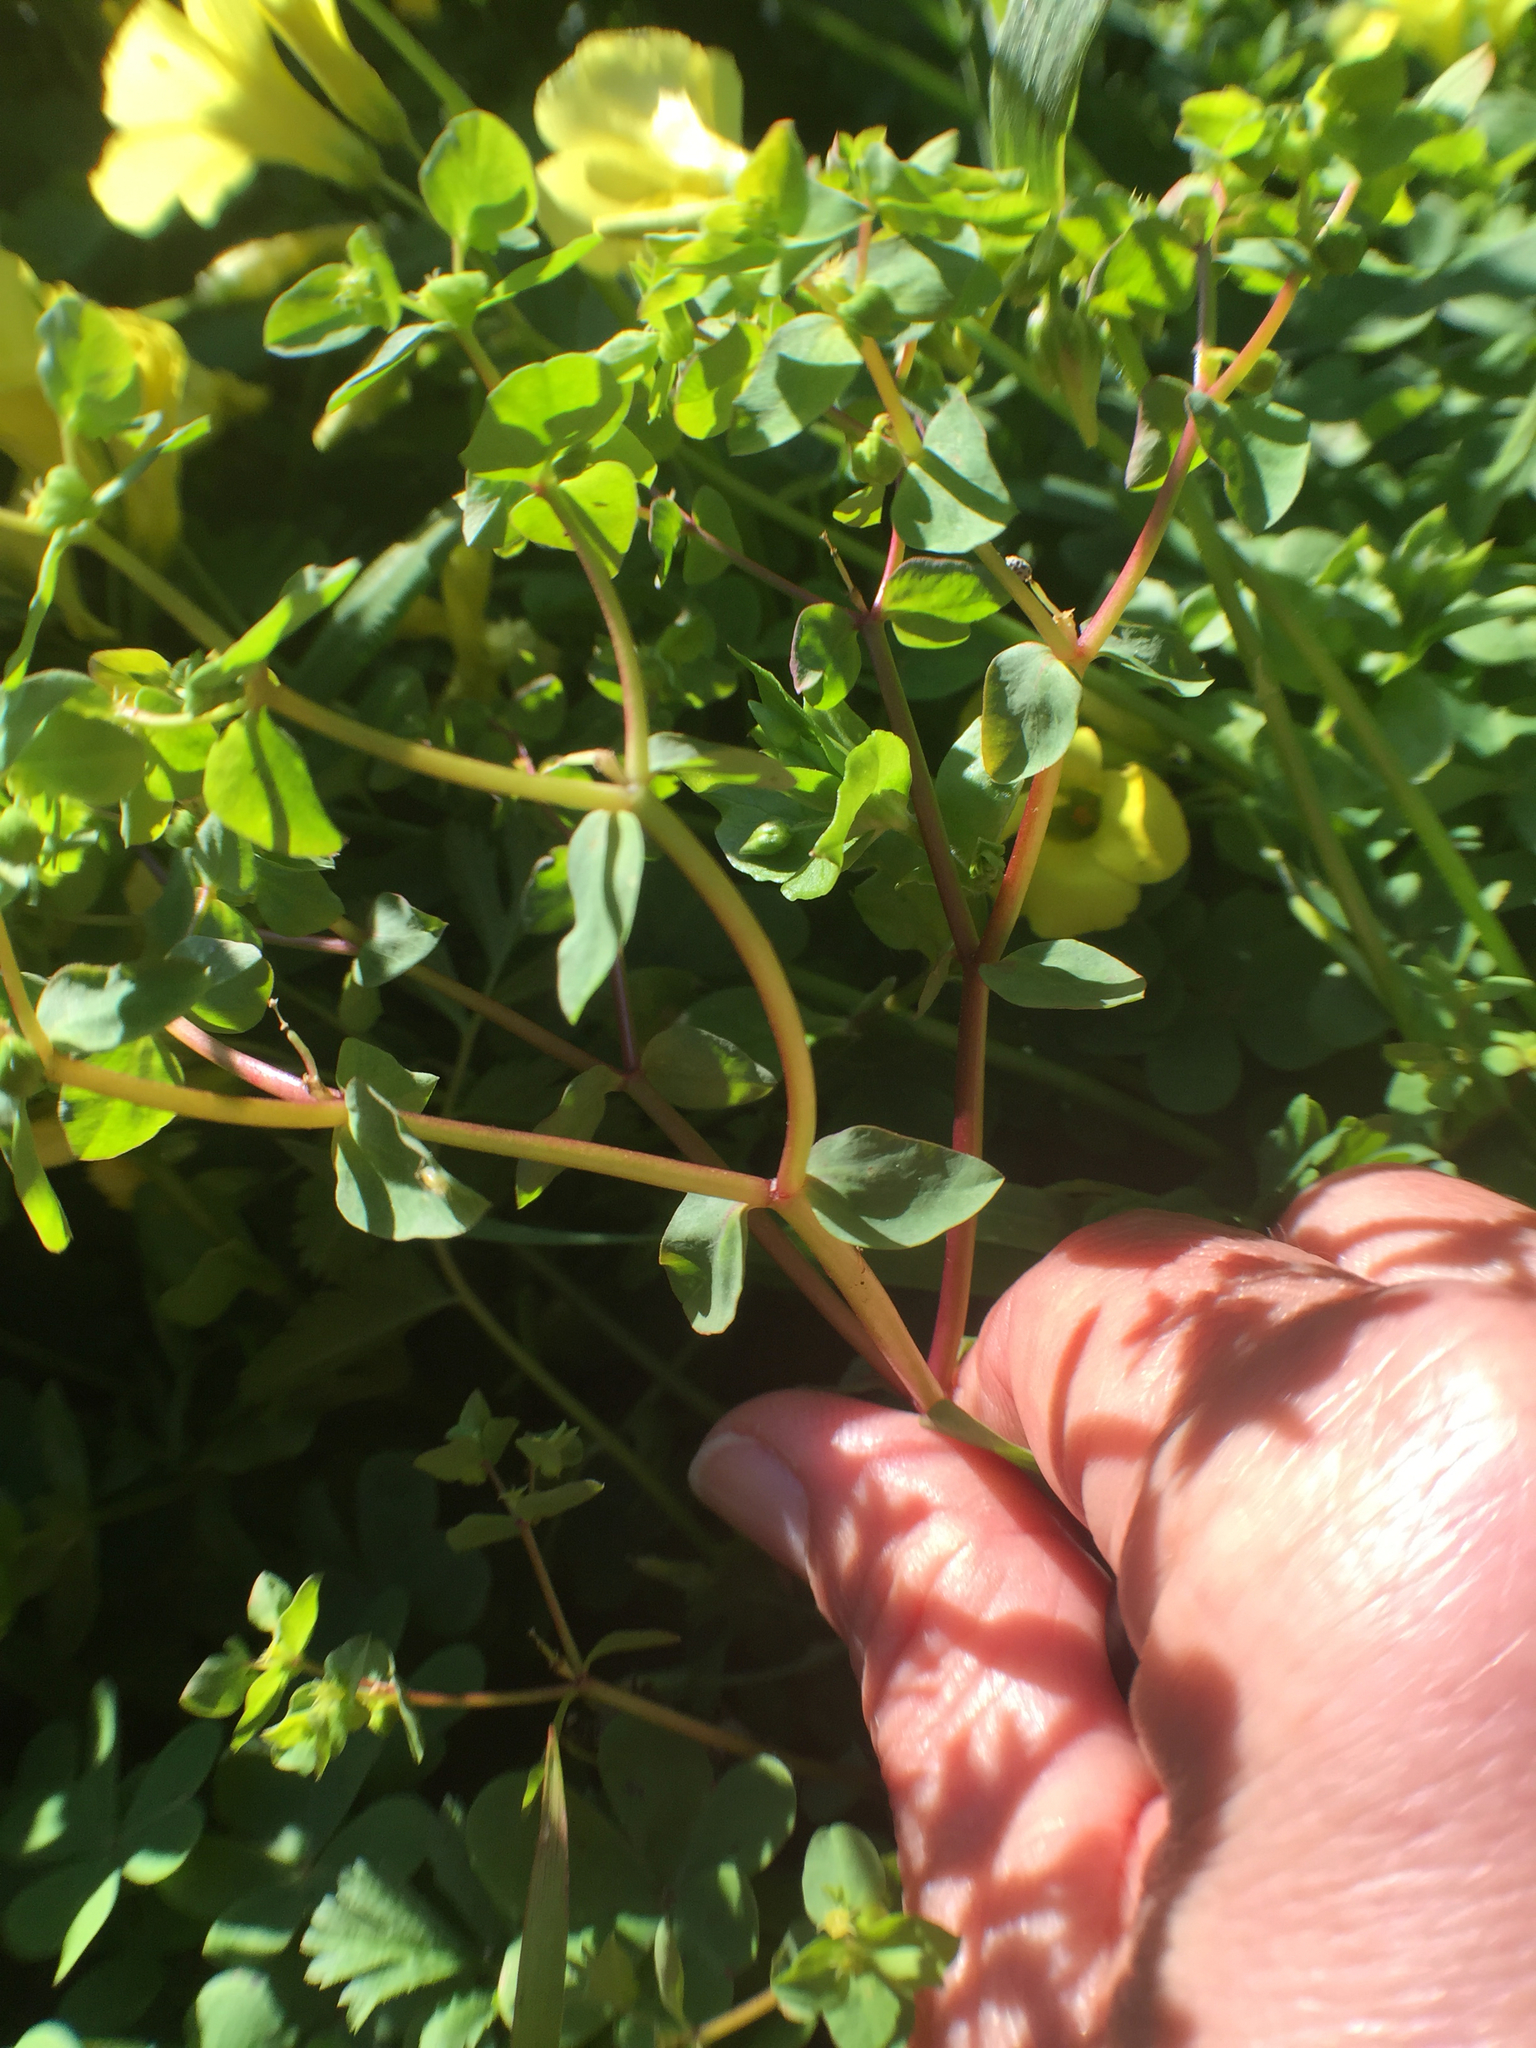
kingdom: Plantae
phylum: Tracheophyta
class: Magnoliopsida
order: Malpighiales
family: Euphorbiaceae
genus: Euphorbia
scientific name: Euphorbia peplus
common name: Petty spurge
